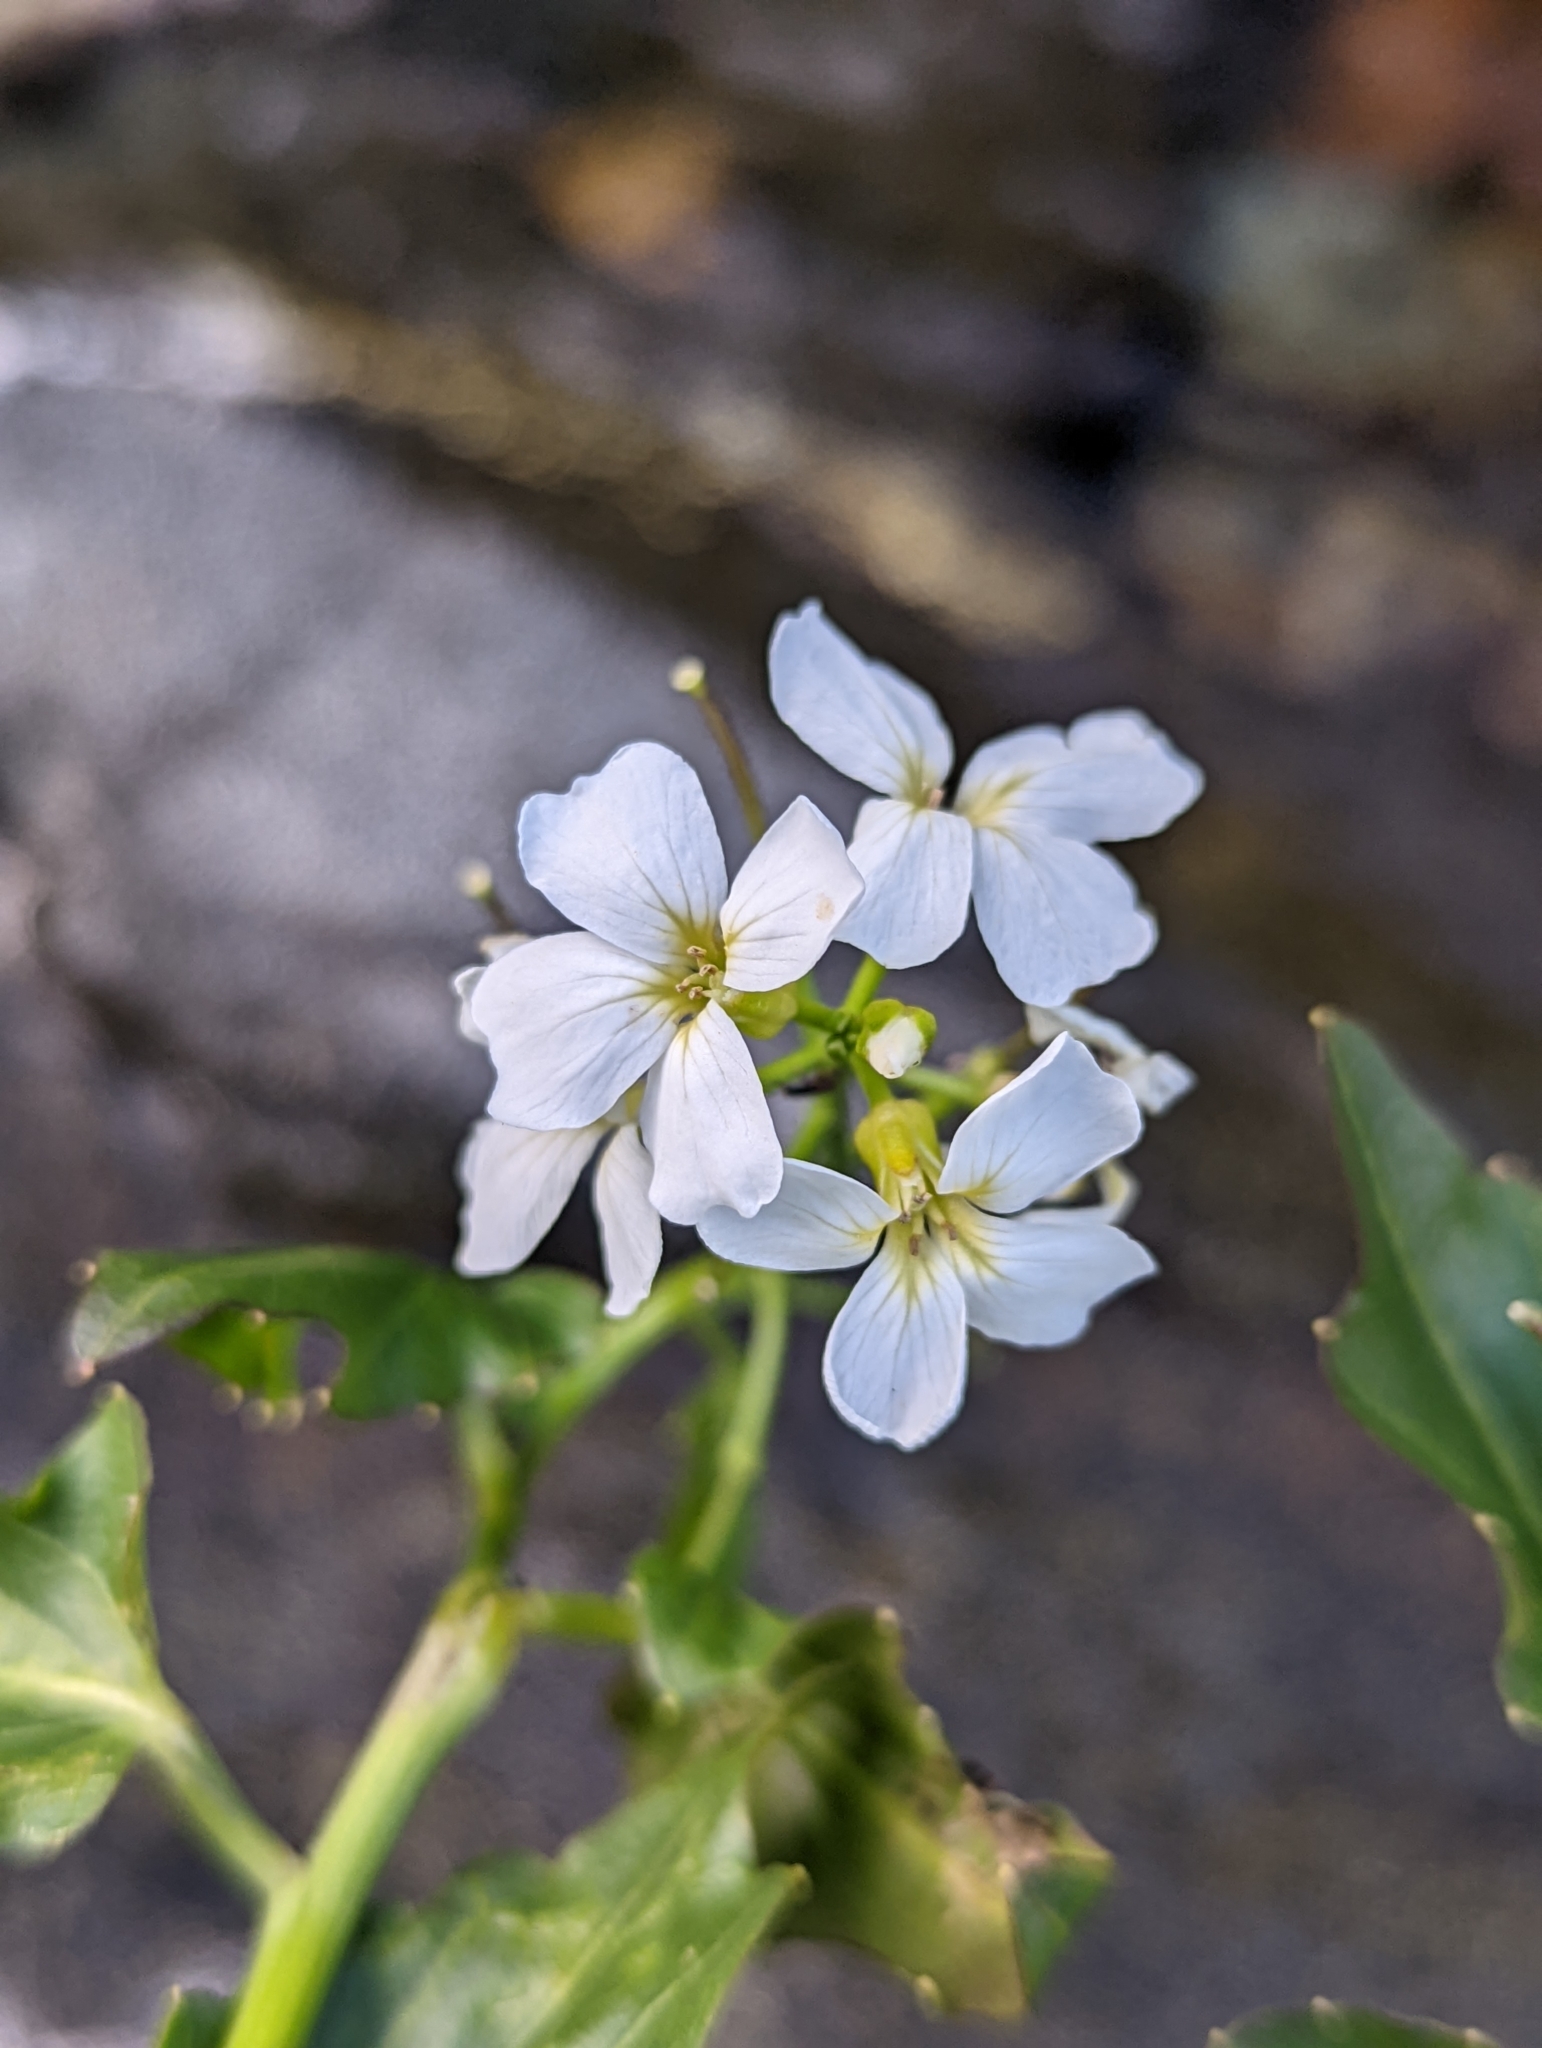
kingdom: Plantae
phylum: Tracheophyta
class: Magnoliopsida
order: Brassicales
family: Brassicaceae
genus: Cardamine
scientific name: Cardamine cordifolia
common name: Heart-leaf bittercress
